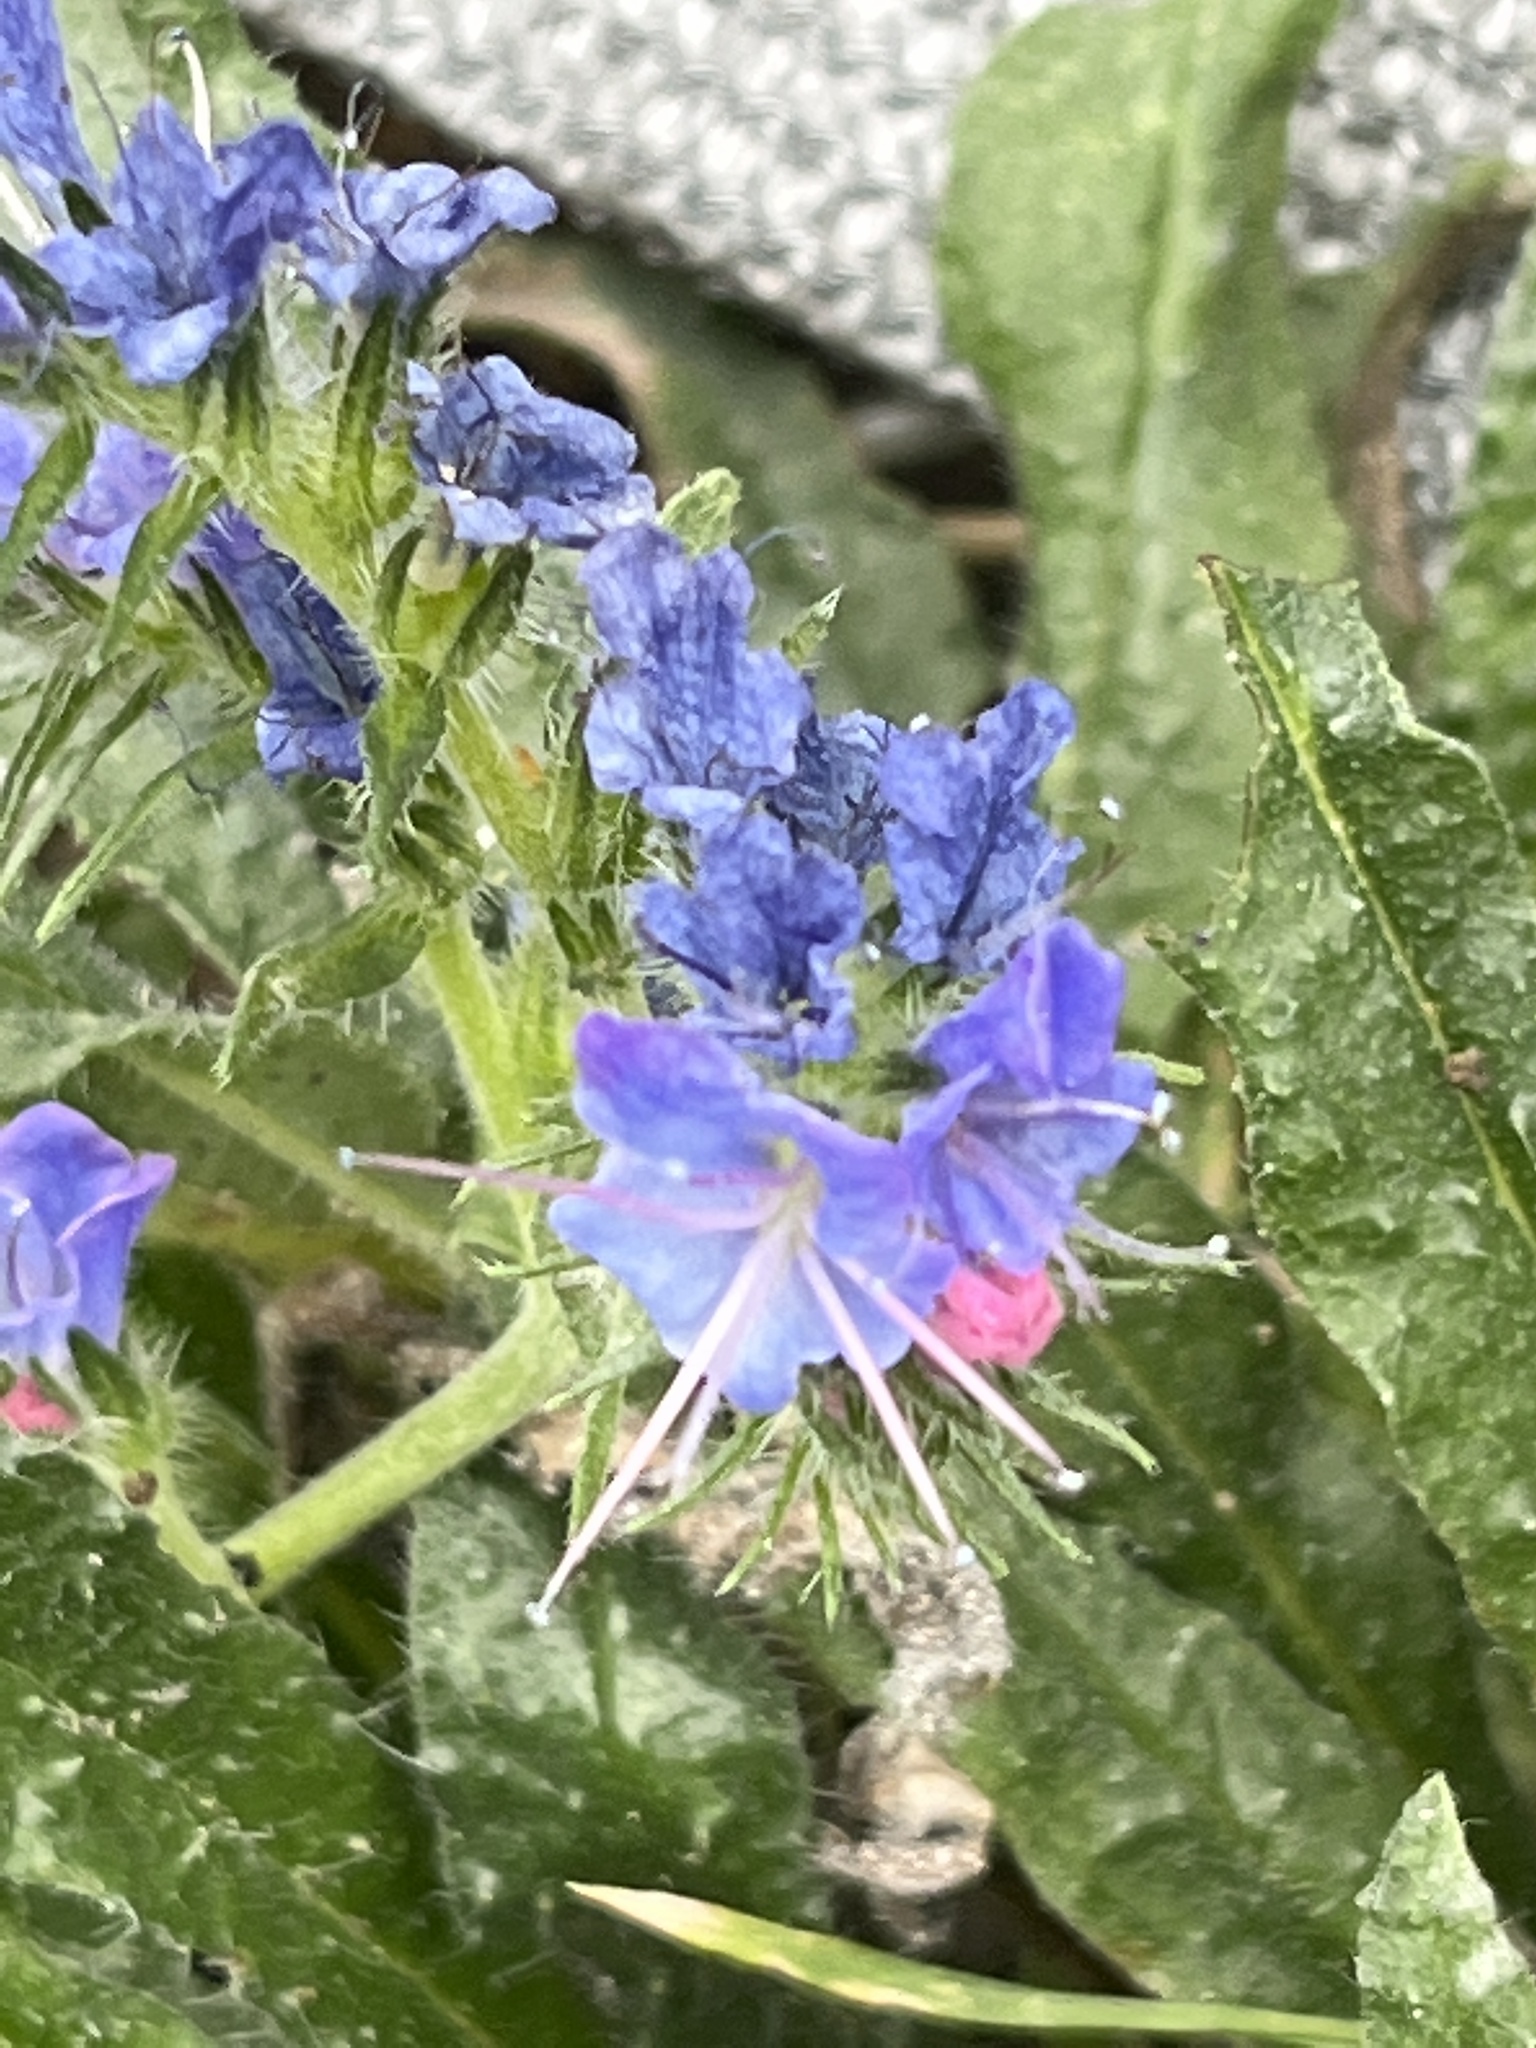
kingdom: Plantae
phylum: Tracheophyta
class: Magnoliopsida
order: Boraginales
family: Boraginaceae
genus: Echium
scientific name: Echium vulgare
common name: Common viper's bugloss
